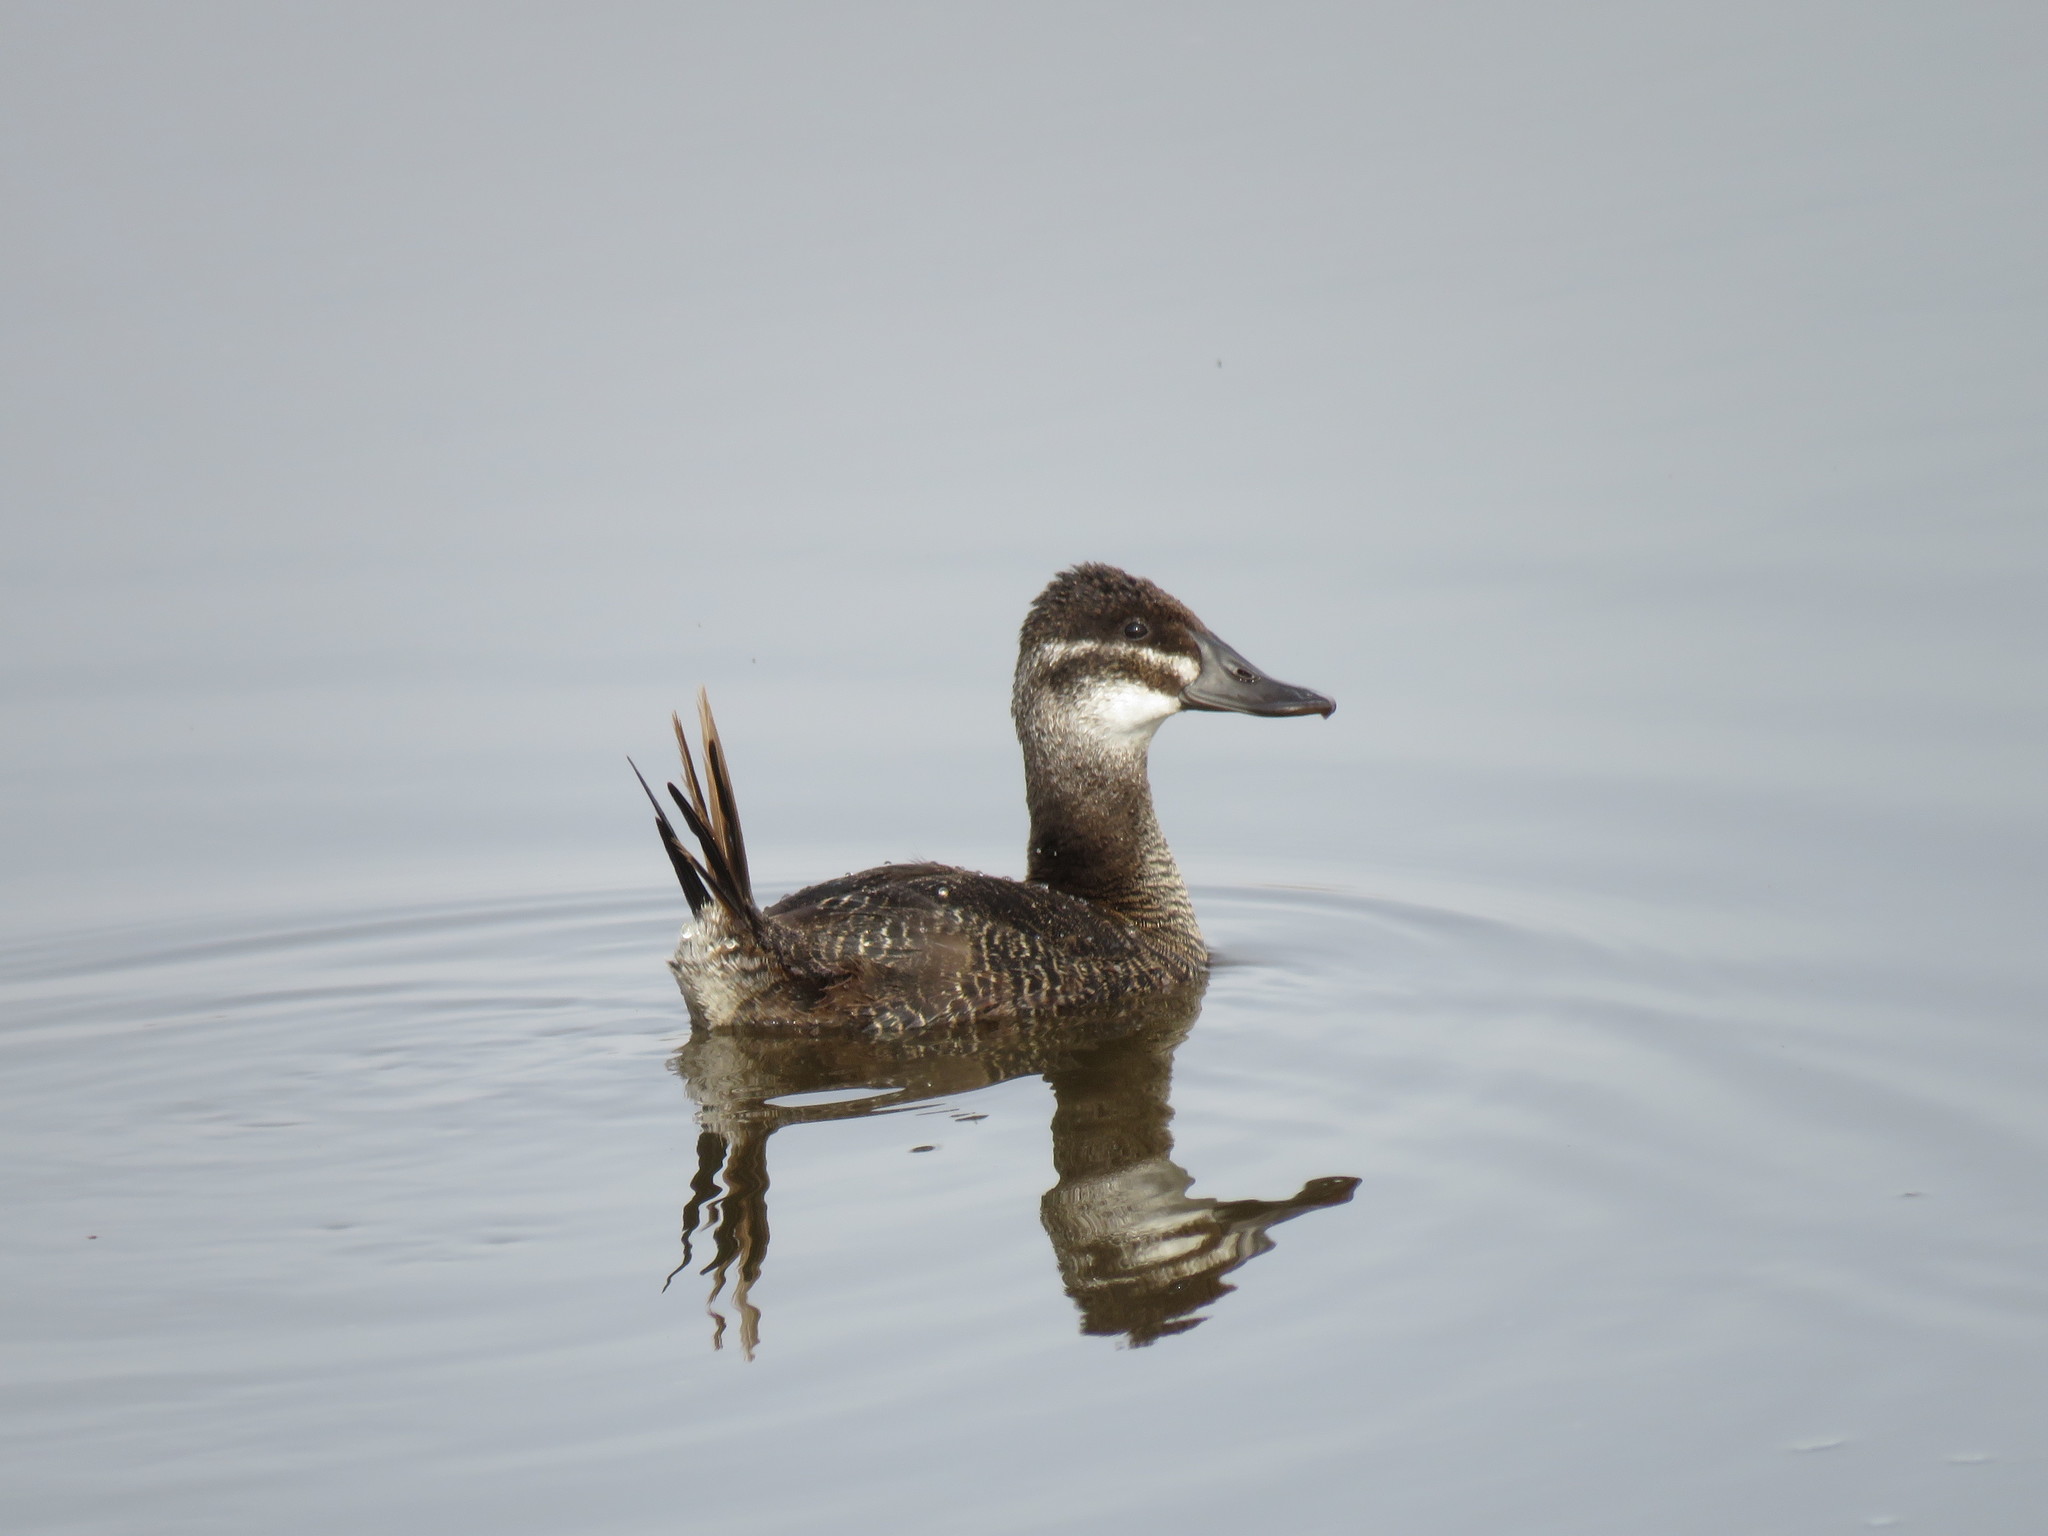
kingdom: Animalia
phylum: Chordata
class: Aves
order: Anseriformes
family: Anatidae
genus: Oxyura
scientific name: Oxyura vittata
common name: Lake duck
